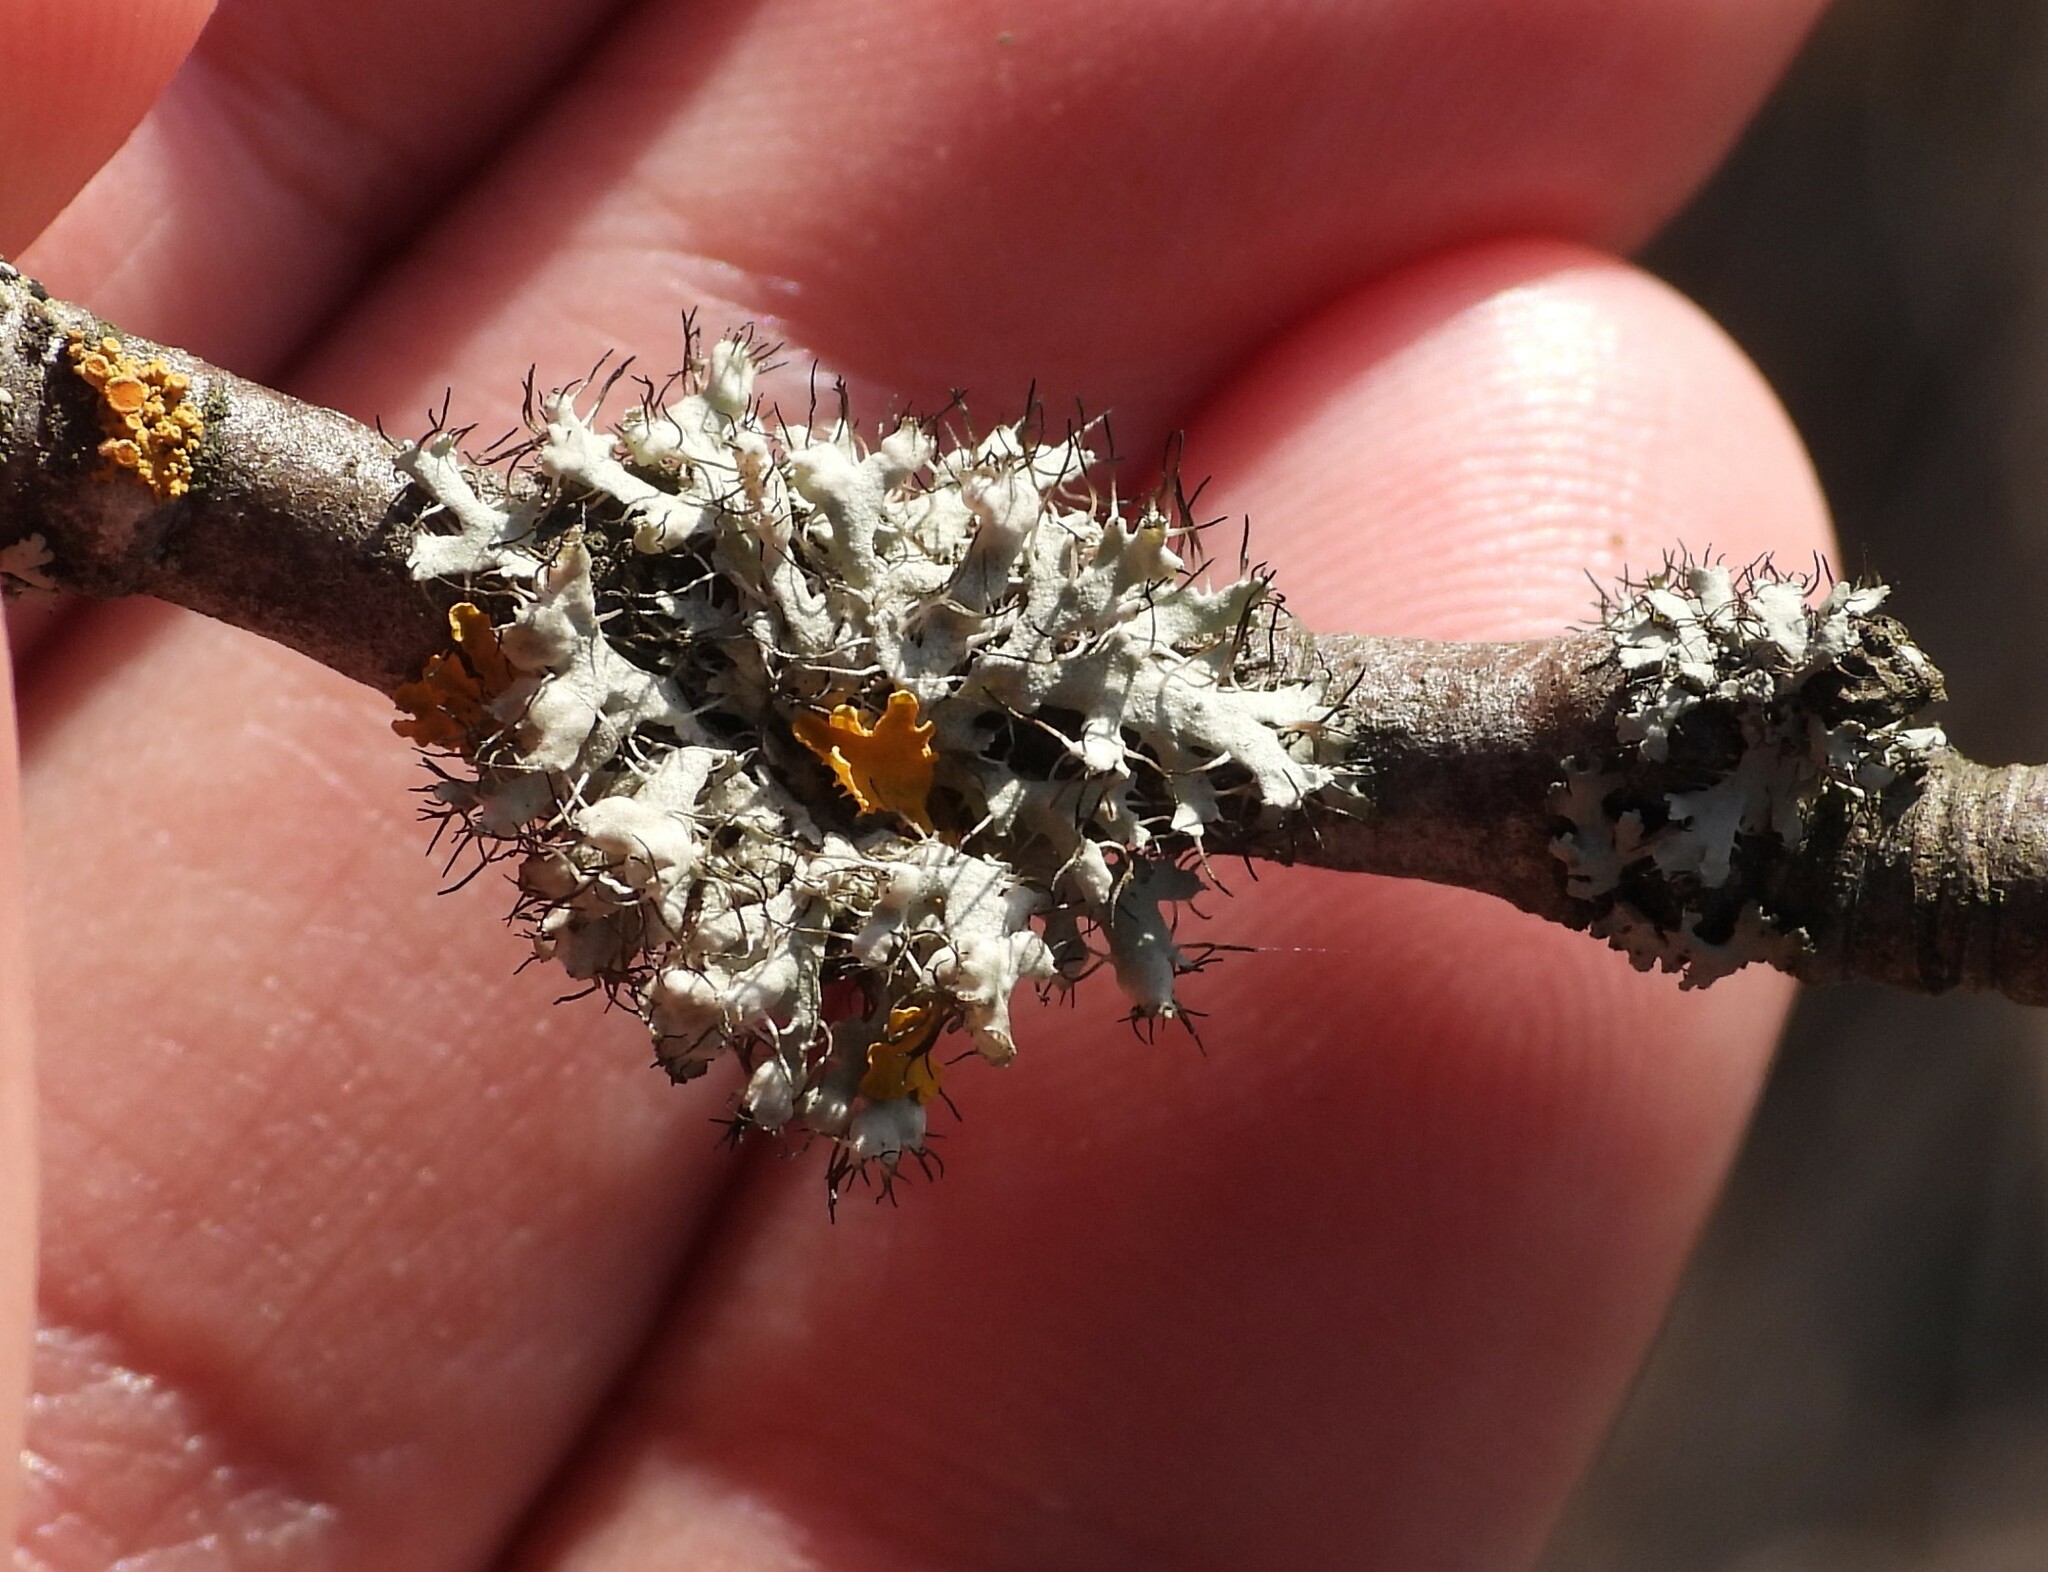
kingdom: Fungi
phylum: Ascomycota
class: Lecanoromycetes
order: Caliciales
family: Physciaceae
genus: Physcia
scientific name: Physcia adscendens
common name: Hooded rosette lichen
